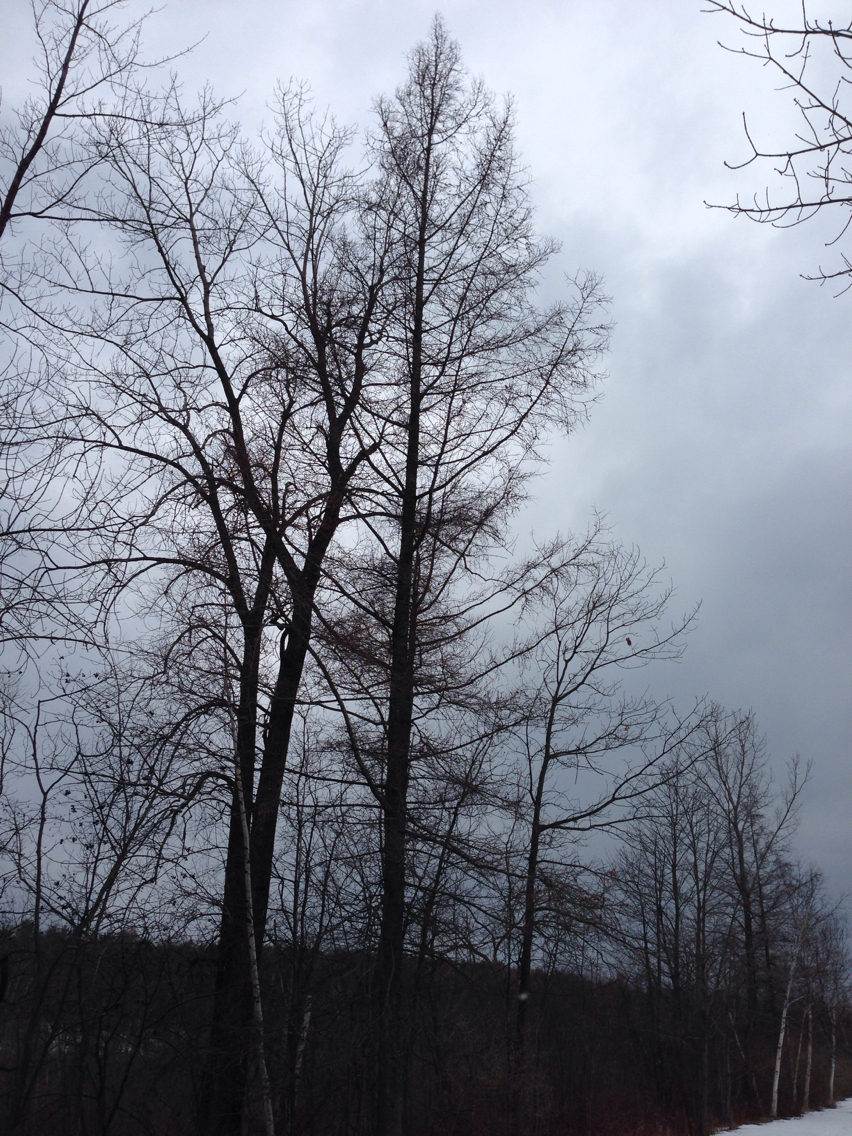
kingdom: Plantae
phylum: Tracheophyta
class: Pinopsida
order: Pinales
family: Pinaceae
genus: Larix
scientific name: Larix laricina
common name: American larch
